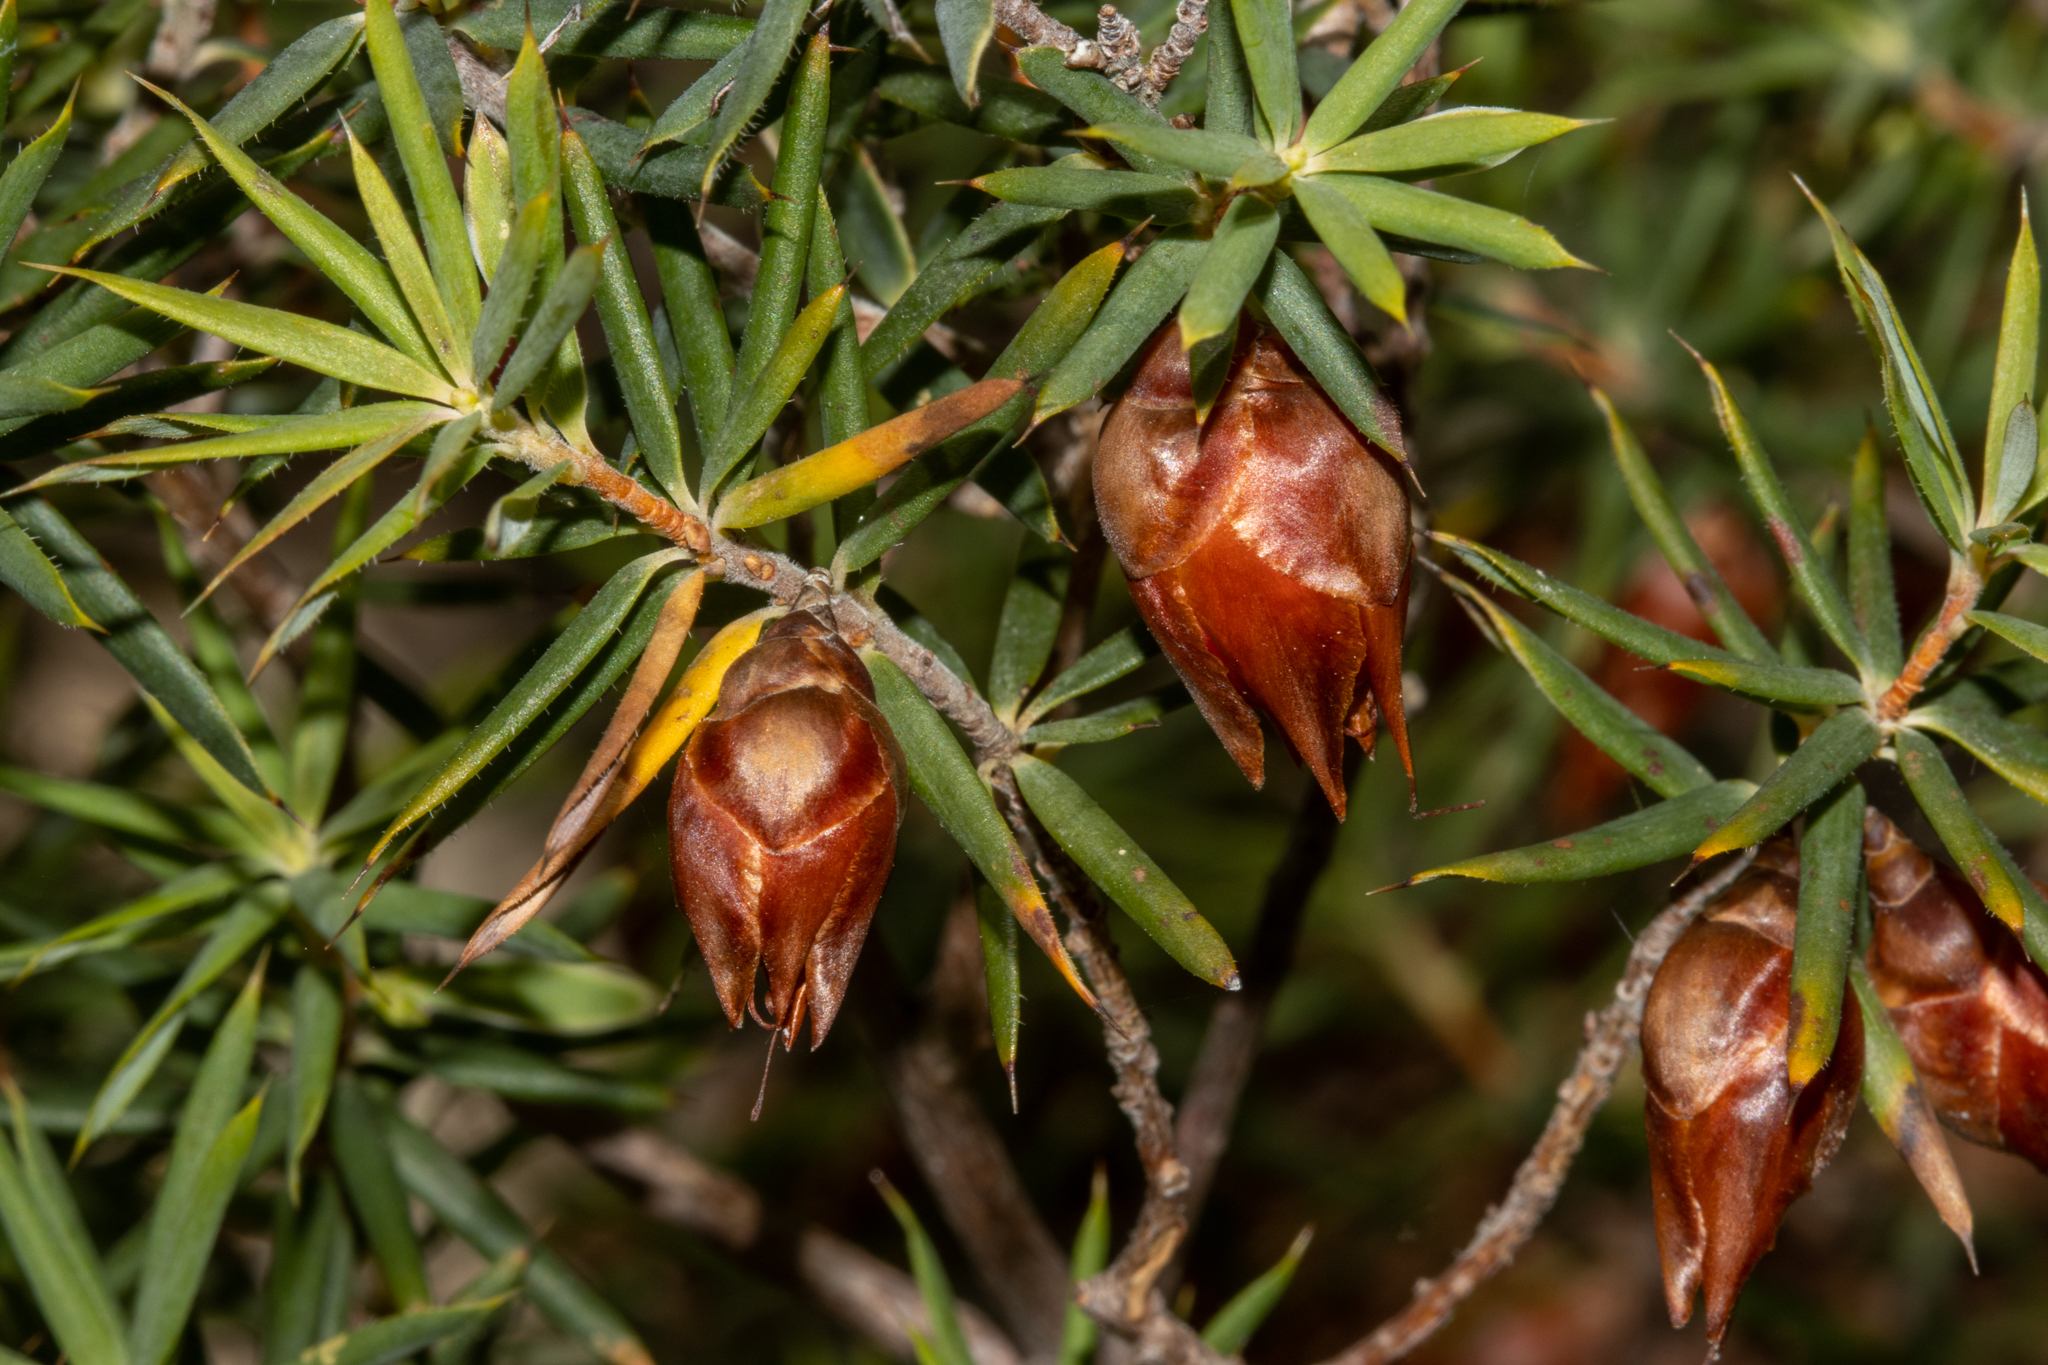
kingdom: Plantae
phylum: Tracheophyta
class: Magnoliopsida
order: Ericales
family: Ericaceae
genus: Stenanthera
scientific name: Stenanthera conostephioides
